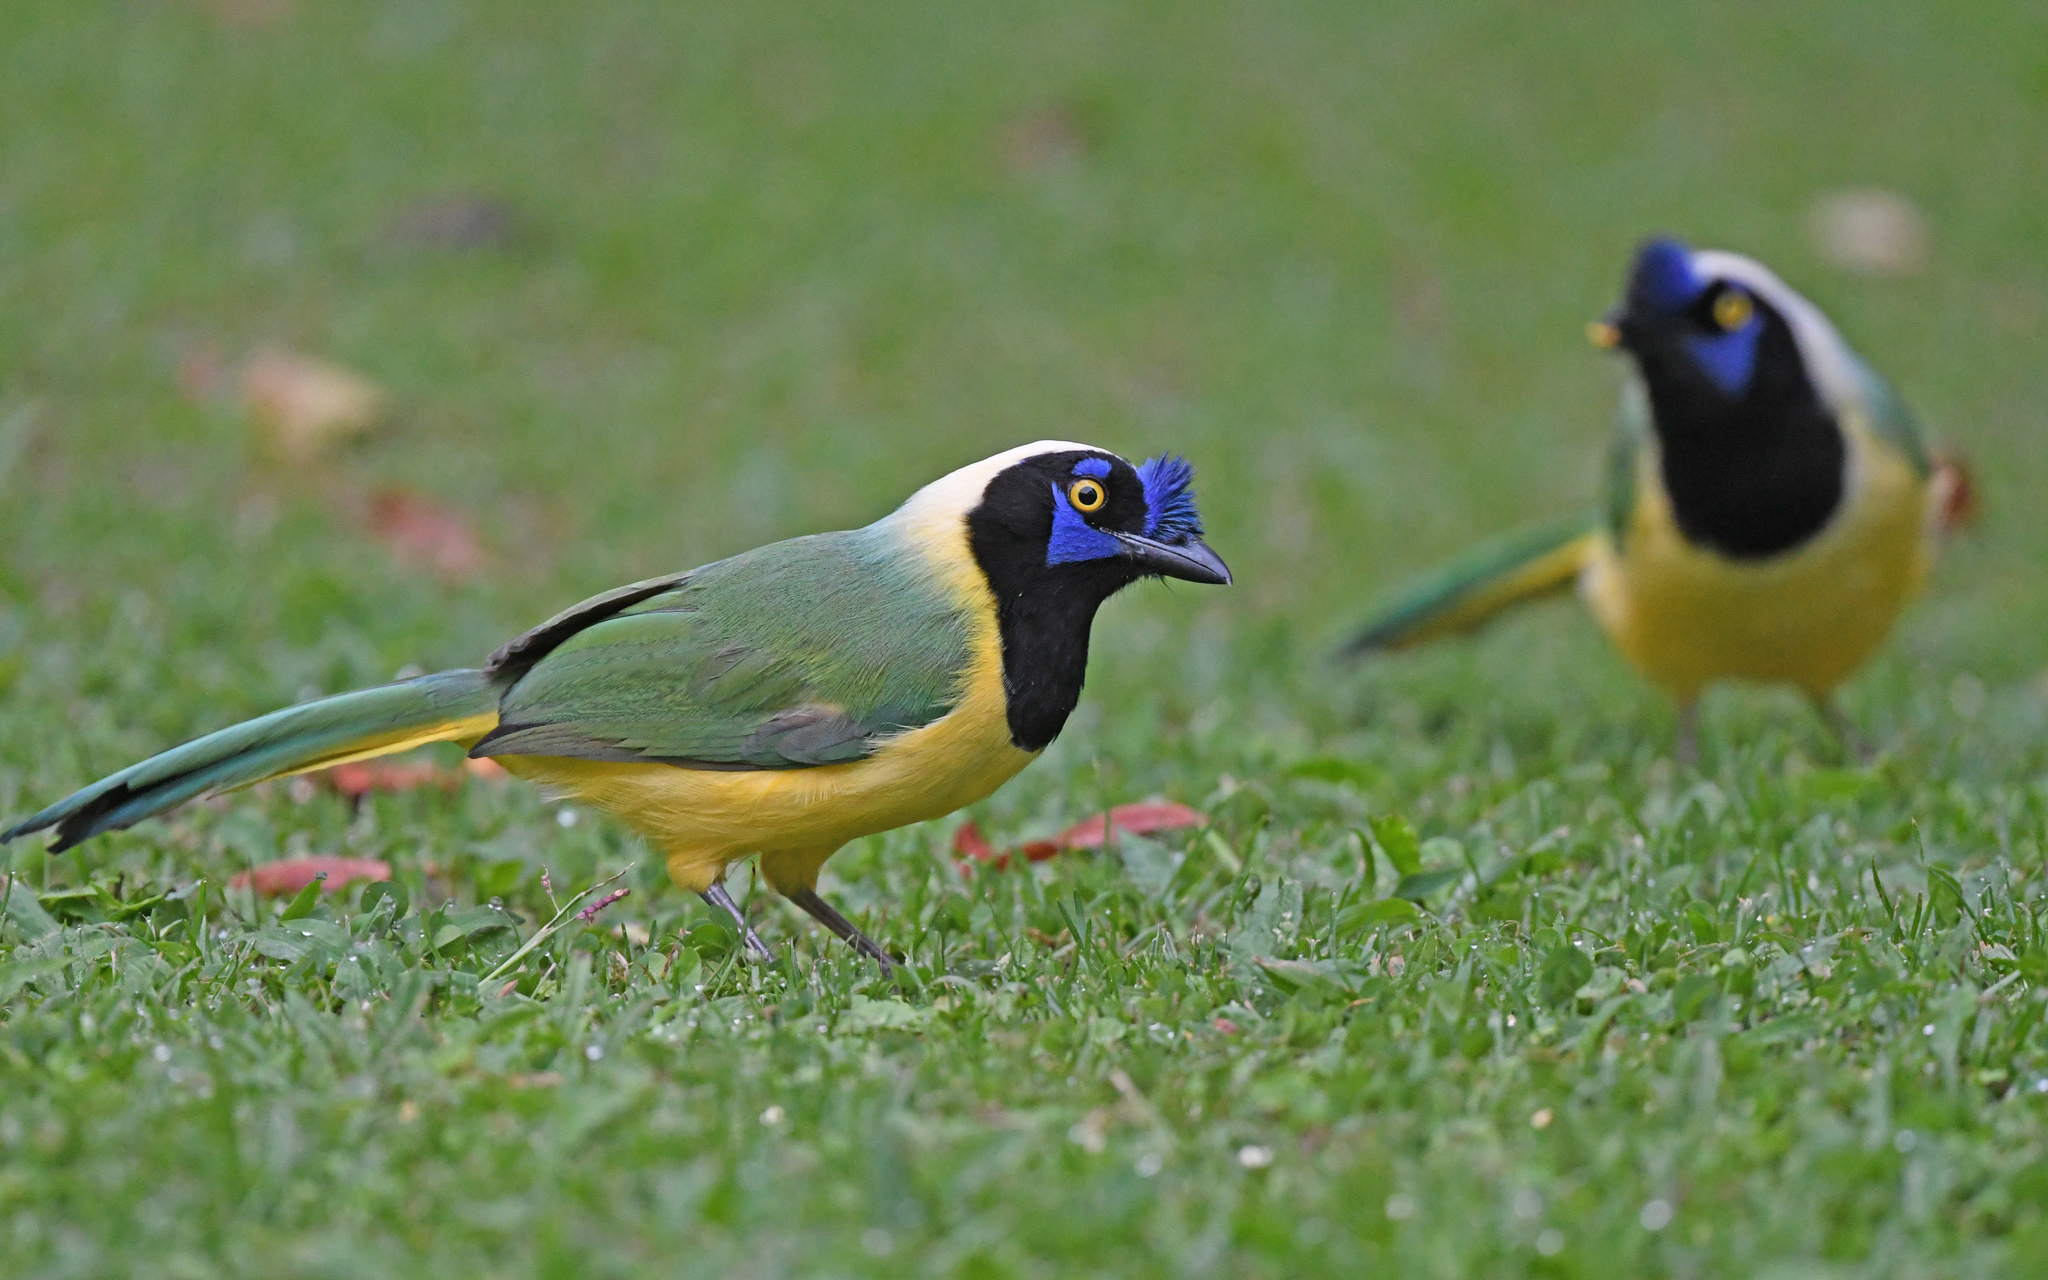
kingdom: Animalia
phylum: Chordata
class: Aves
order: Passeriformes
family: Corvidae
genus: Cyanocorax
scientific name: Cyanocorax yncas
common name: Green jay
